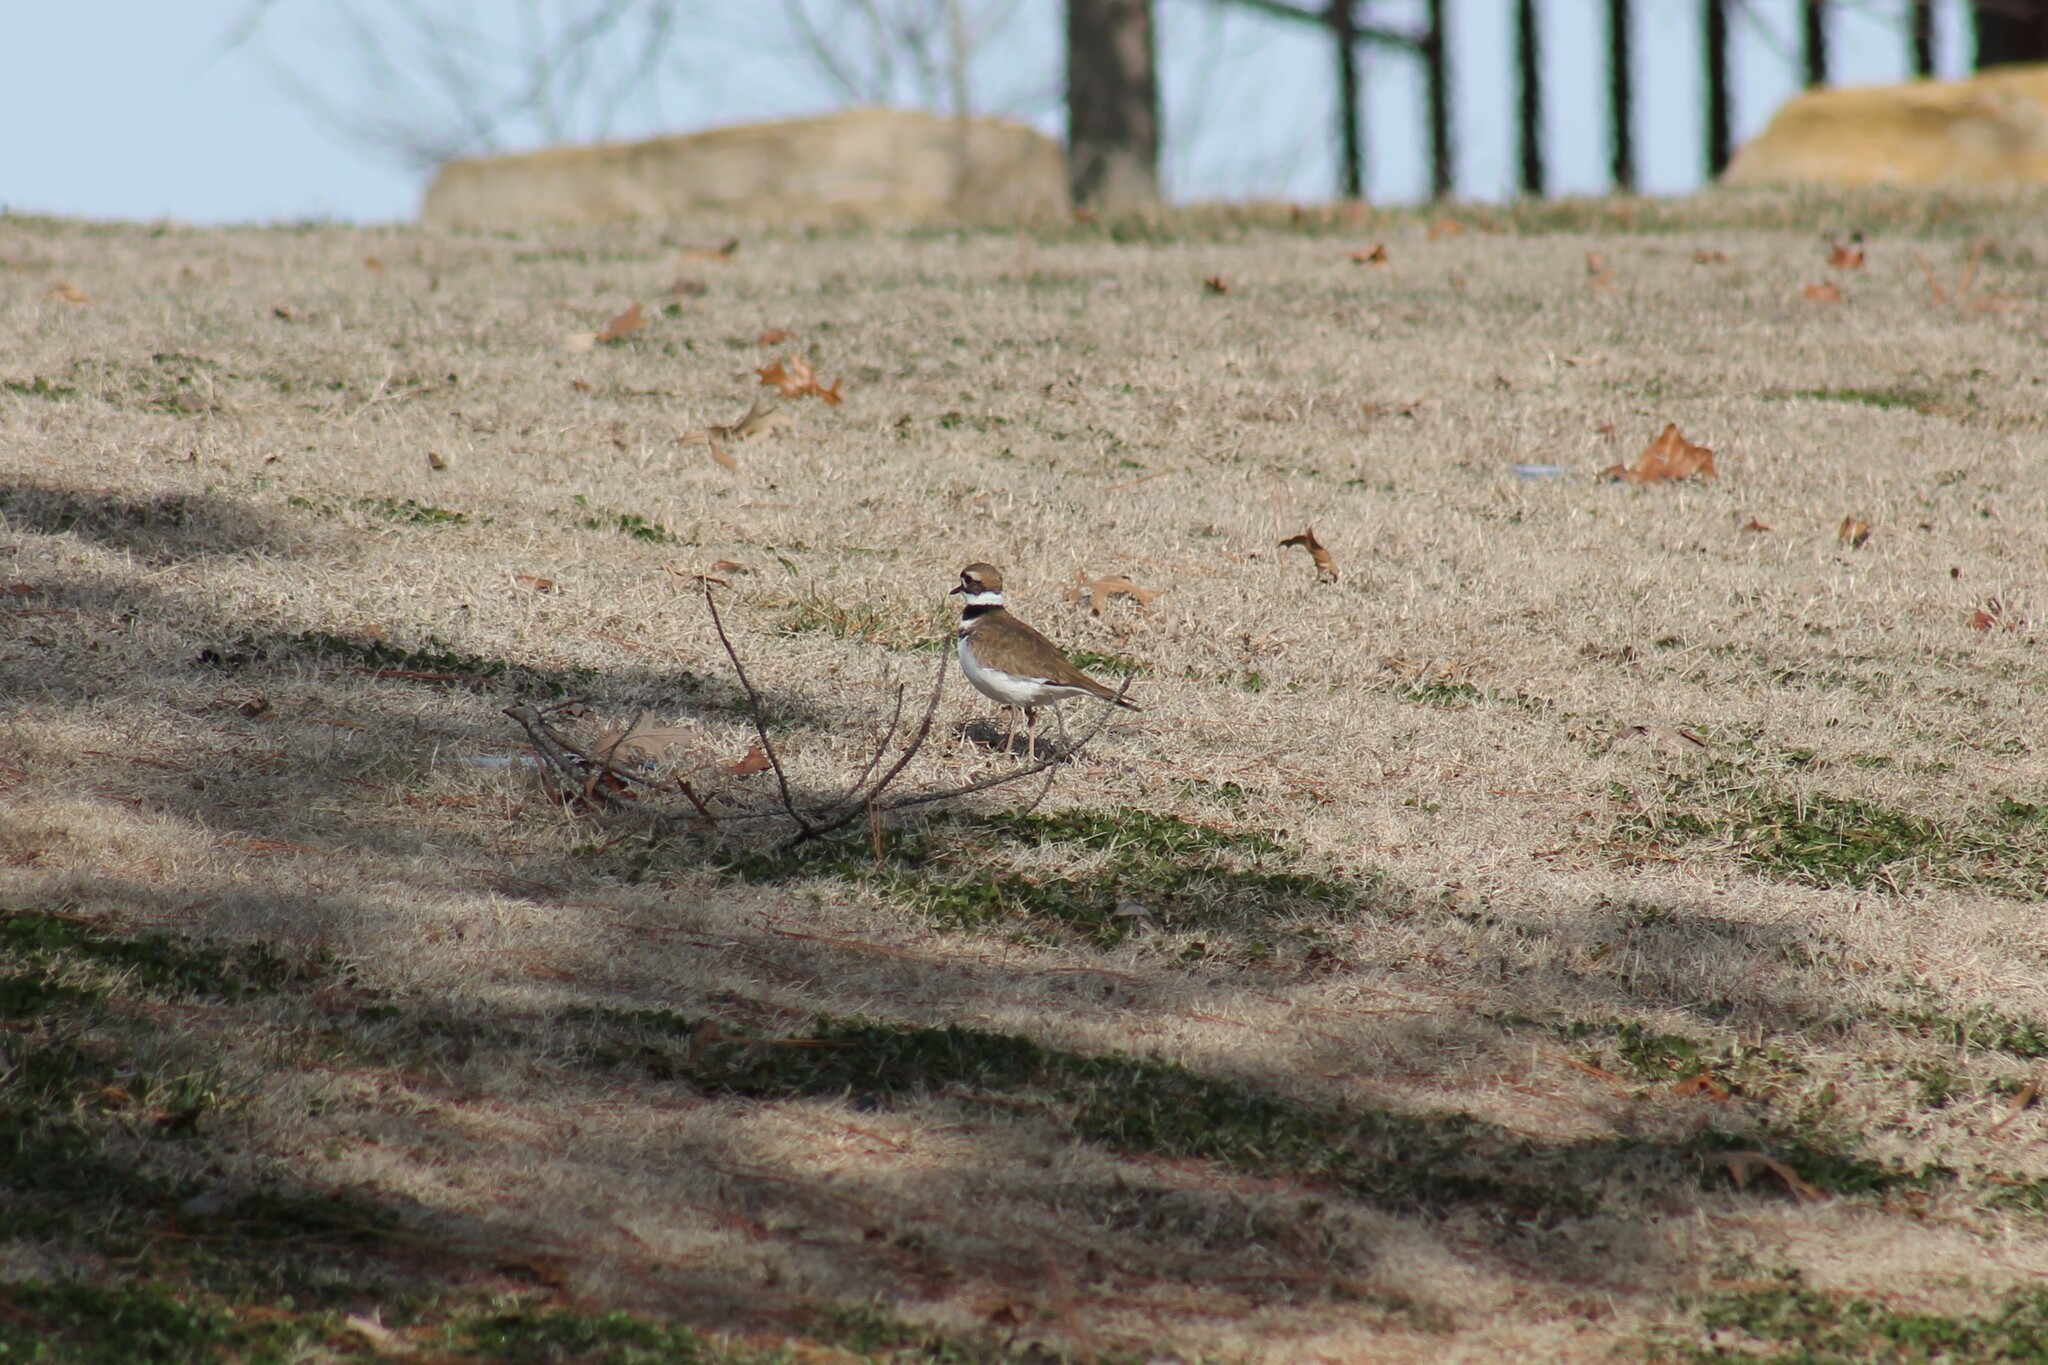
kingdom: Animalia
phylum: Chordata
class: Aves
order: Charadriiformes
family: Charadriidae
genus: Charadrius
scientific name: Charadrius vociferus
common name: Killdeer
